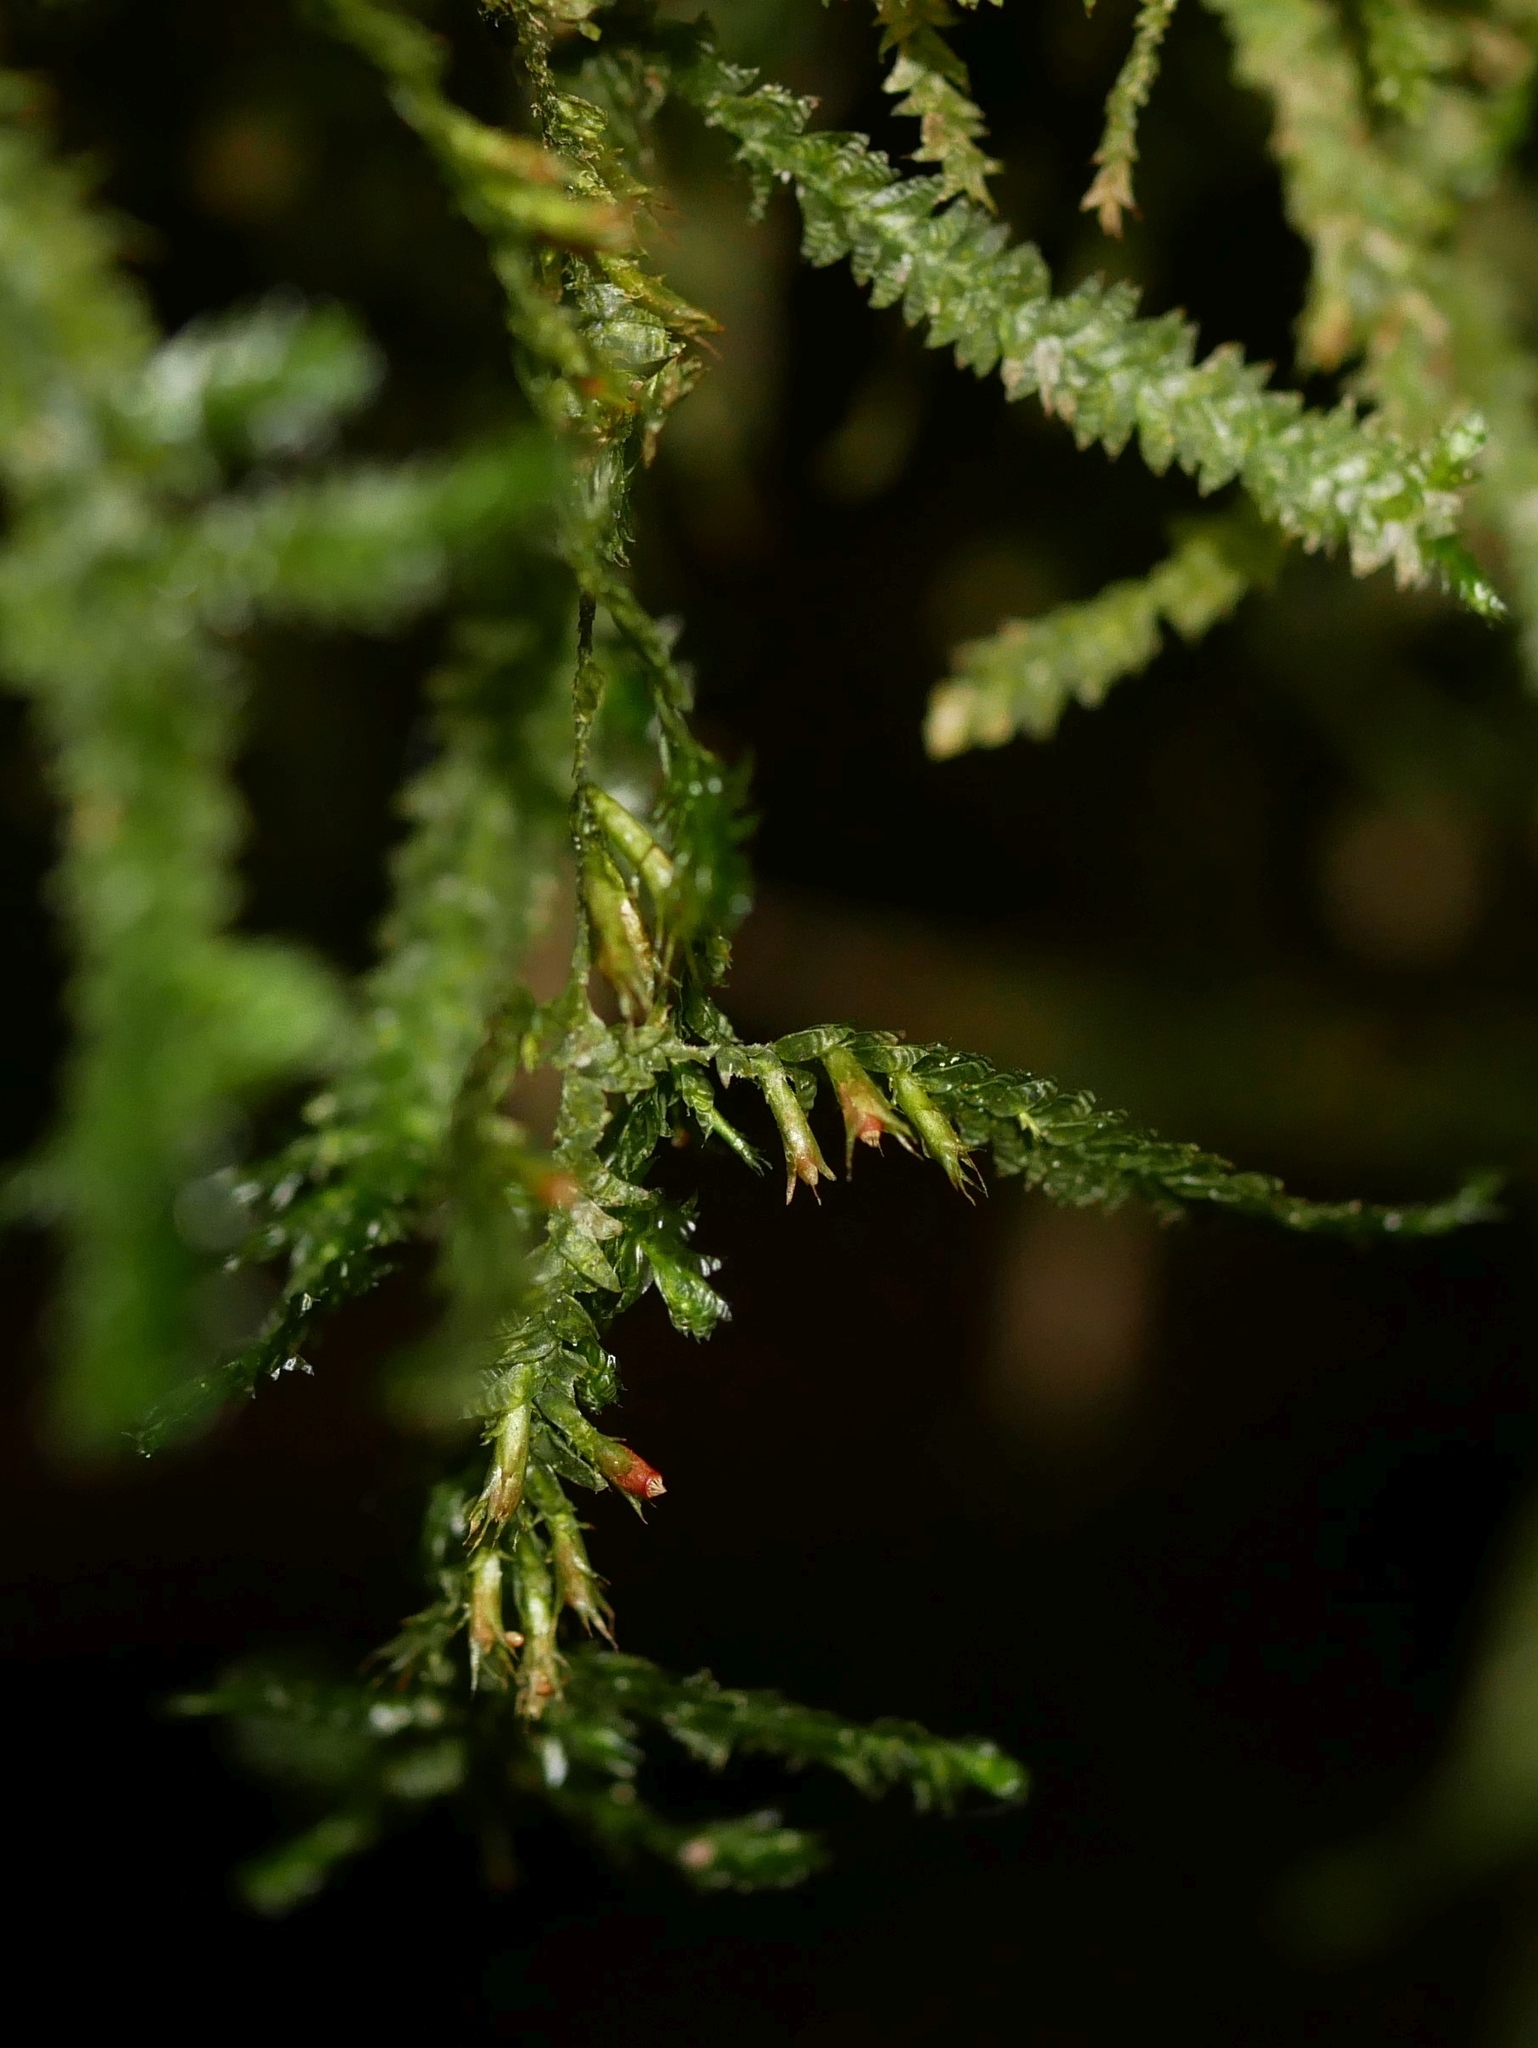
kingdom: Plantae
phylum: Bryophyta
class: Bryopsida
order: Hypnales
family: Neckeraceae
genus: Alleniella
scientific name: Alleniella hymenodonta
